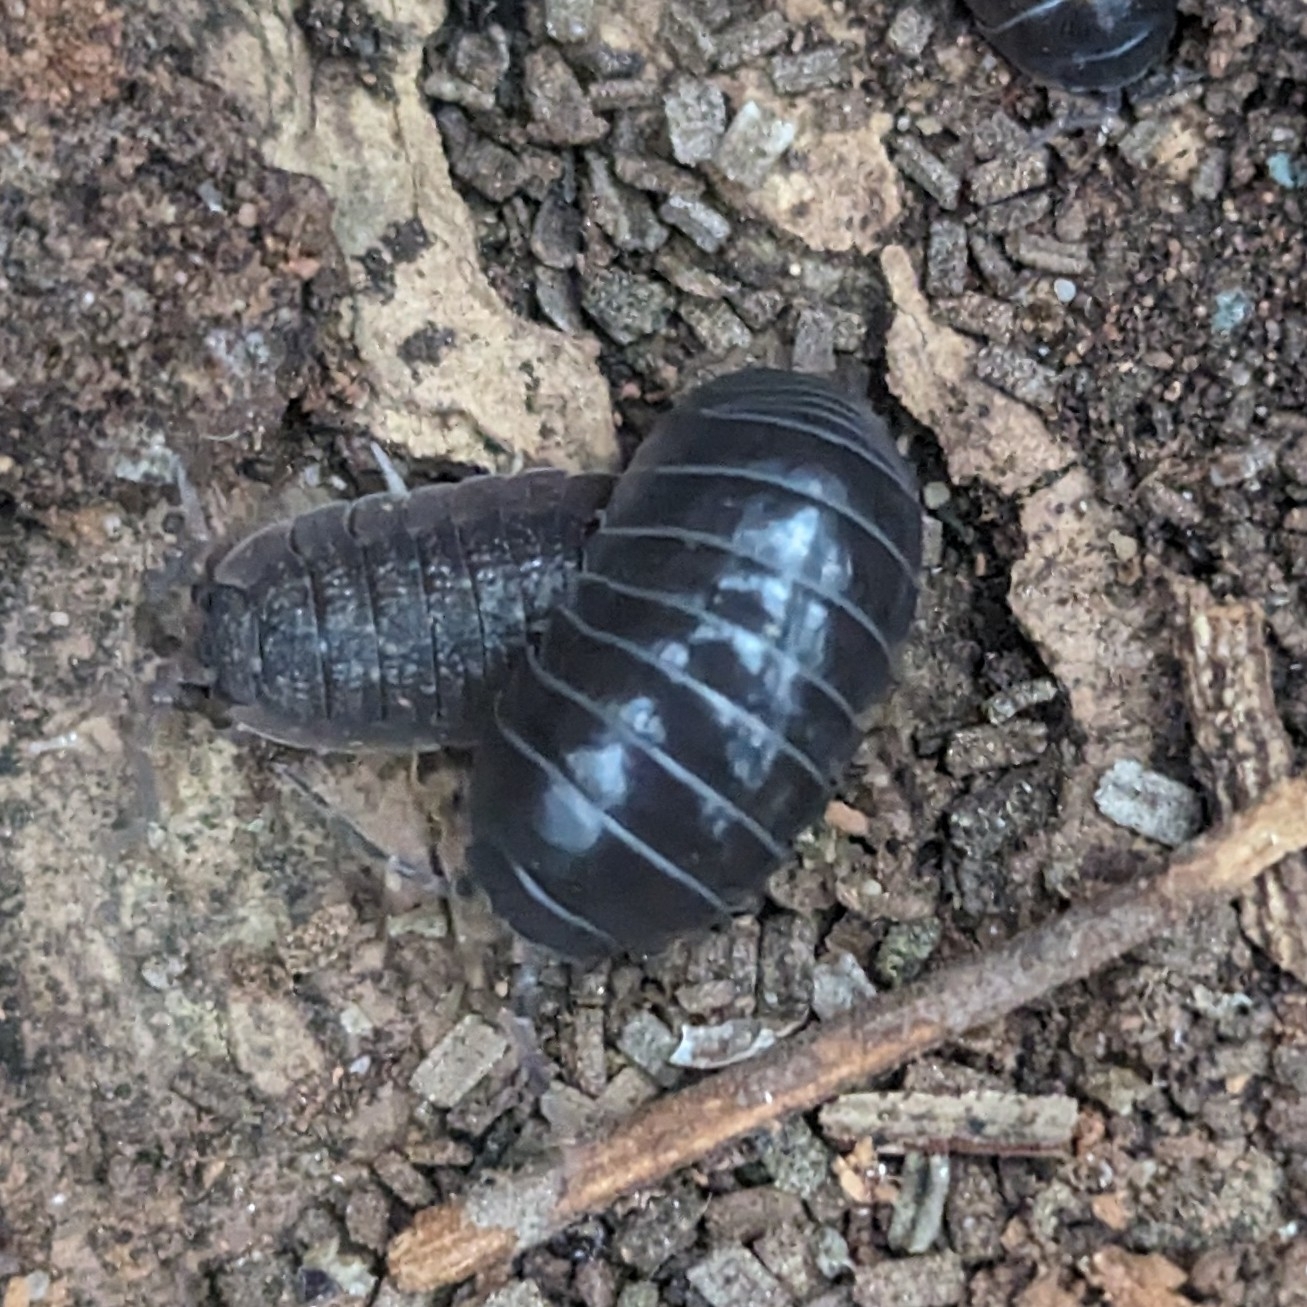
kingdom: Animalia
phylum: Arthropoda
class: Malacostraca
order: Isopoda
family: Armadillidiidae
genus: Armadillidium
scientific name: Armadillidium vulgare
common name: Common pill woodlouse
